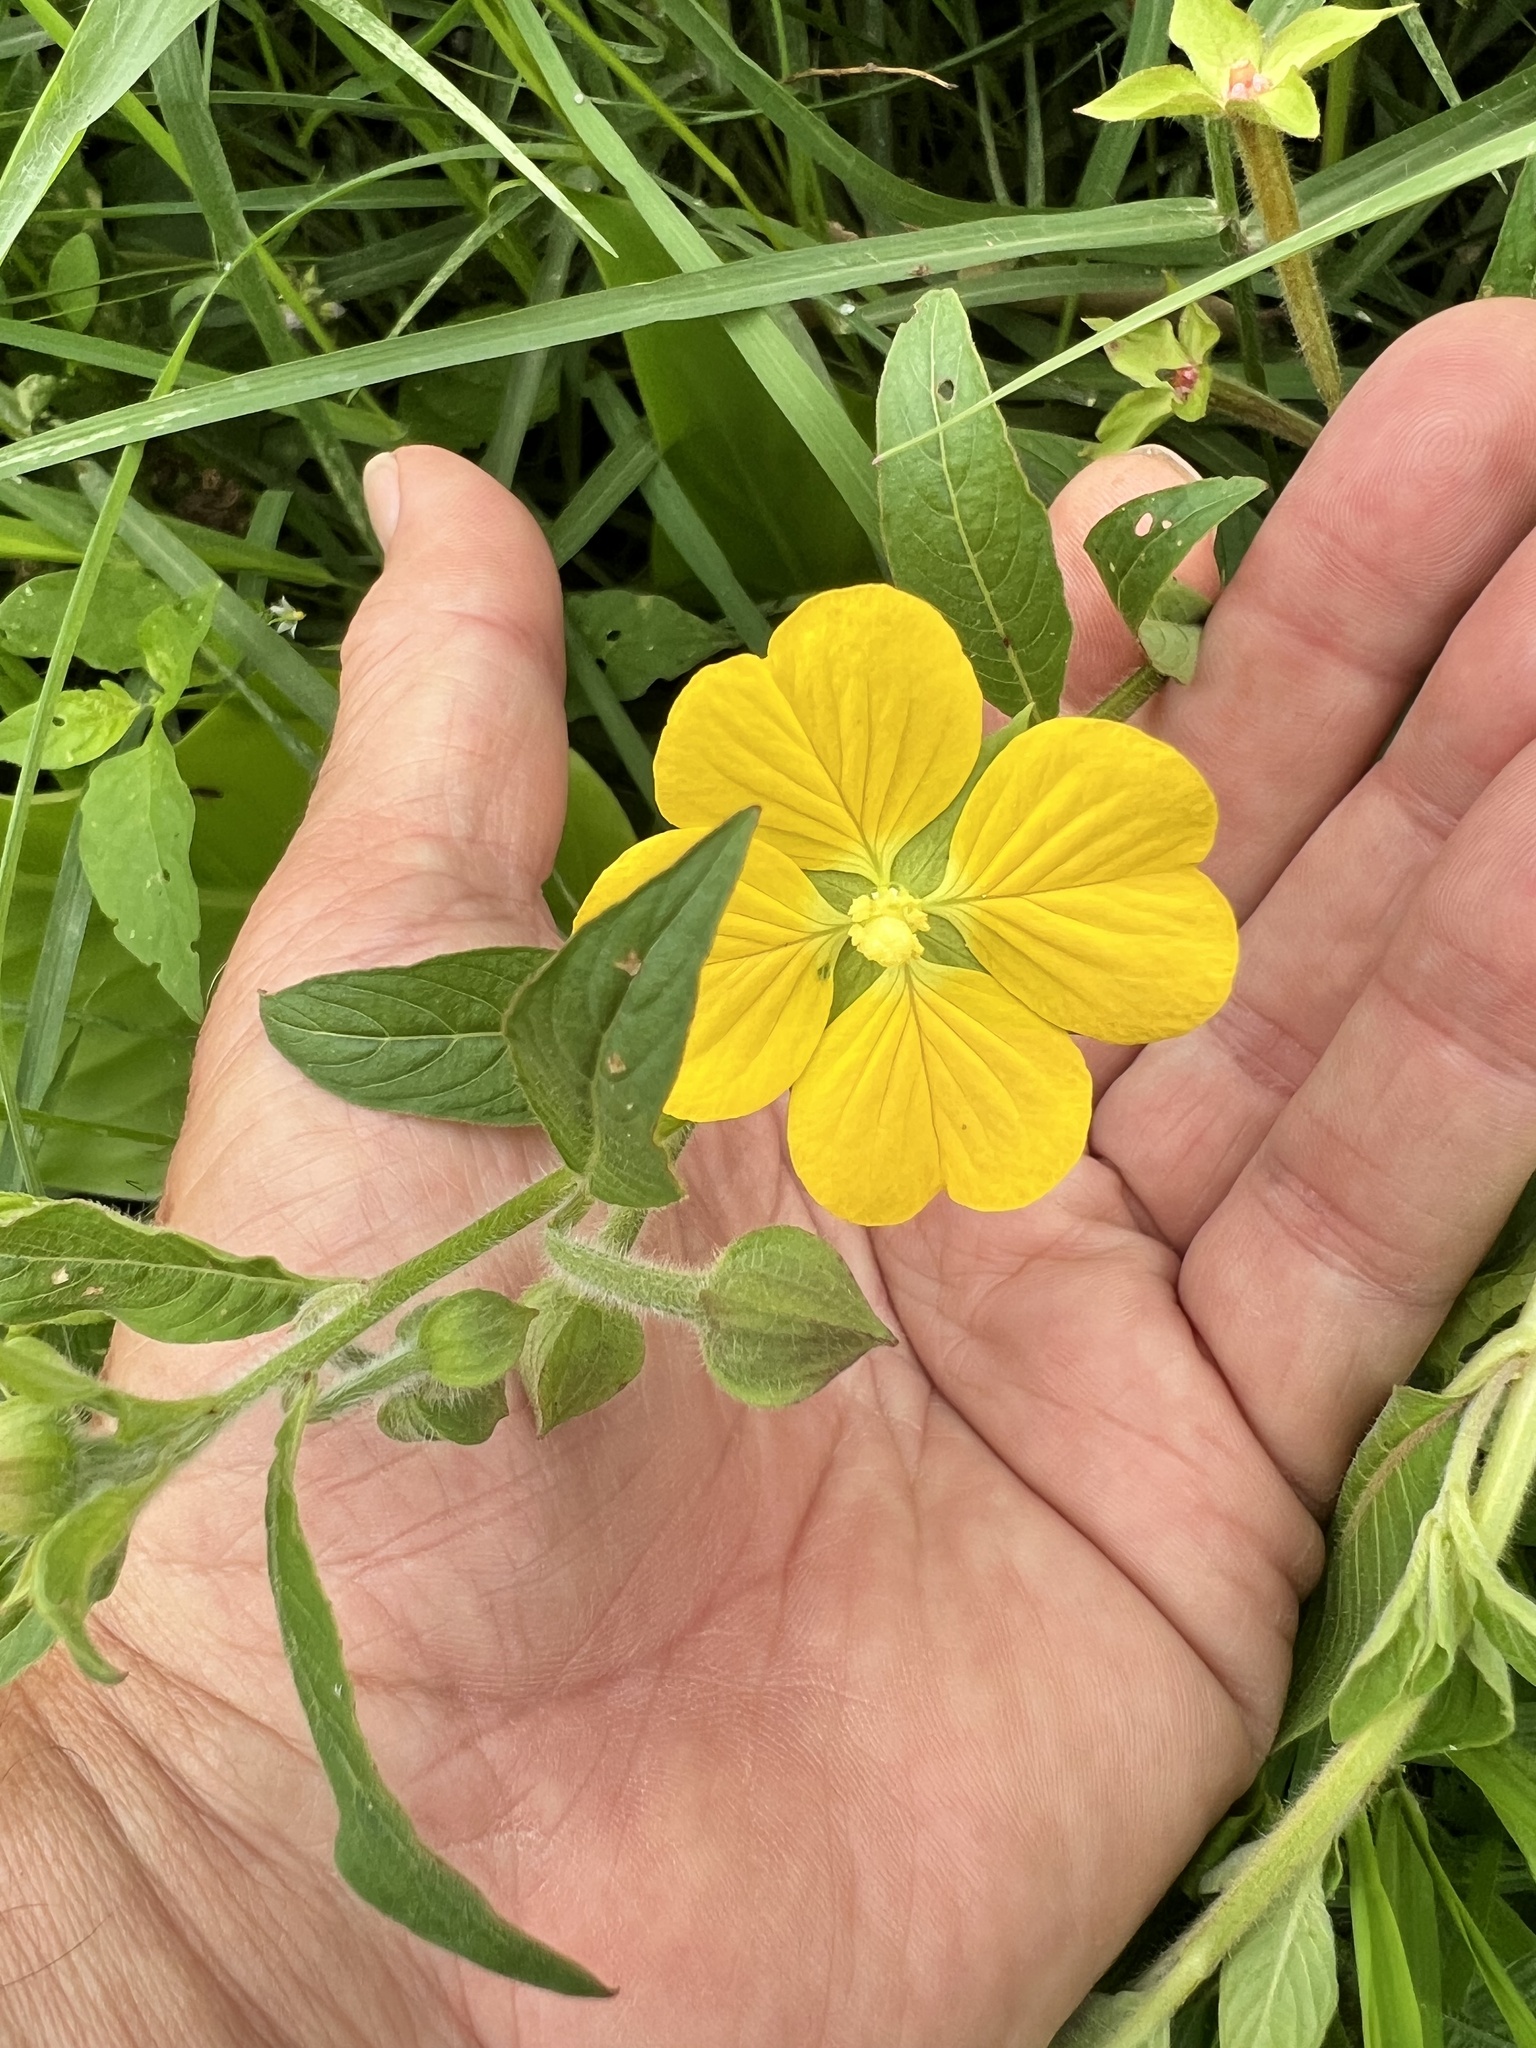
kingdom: Plantae
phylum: Tracheophyta
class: Magnoliopsida
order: Myrtales
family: Onagraceae
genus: Ludwigia
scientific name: Ludwigia octovalvis
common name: Water-primrose
